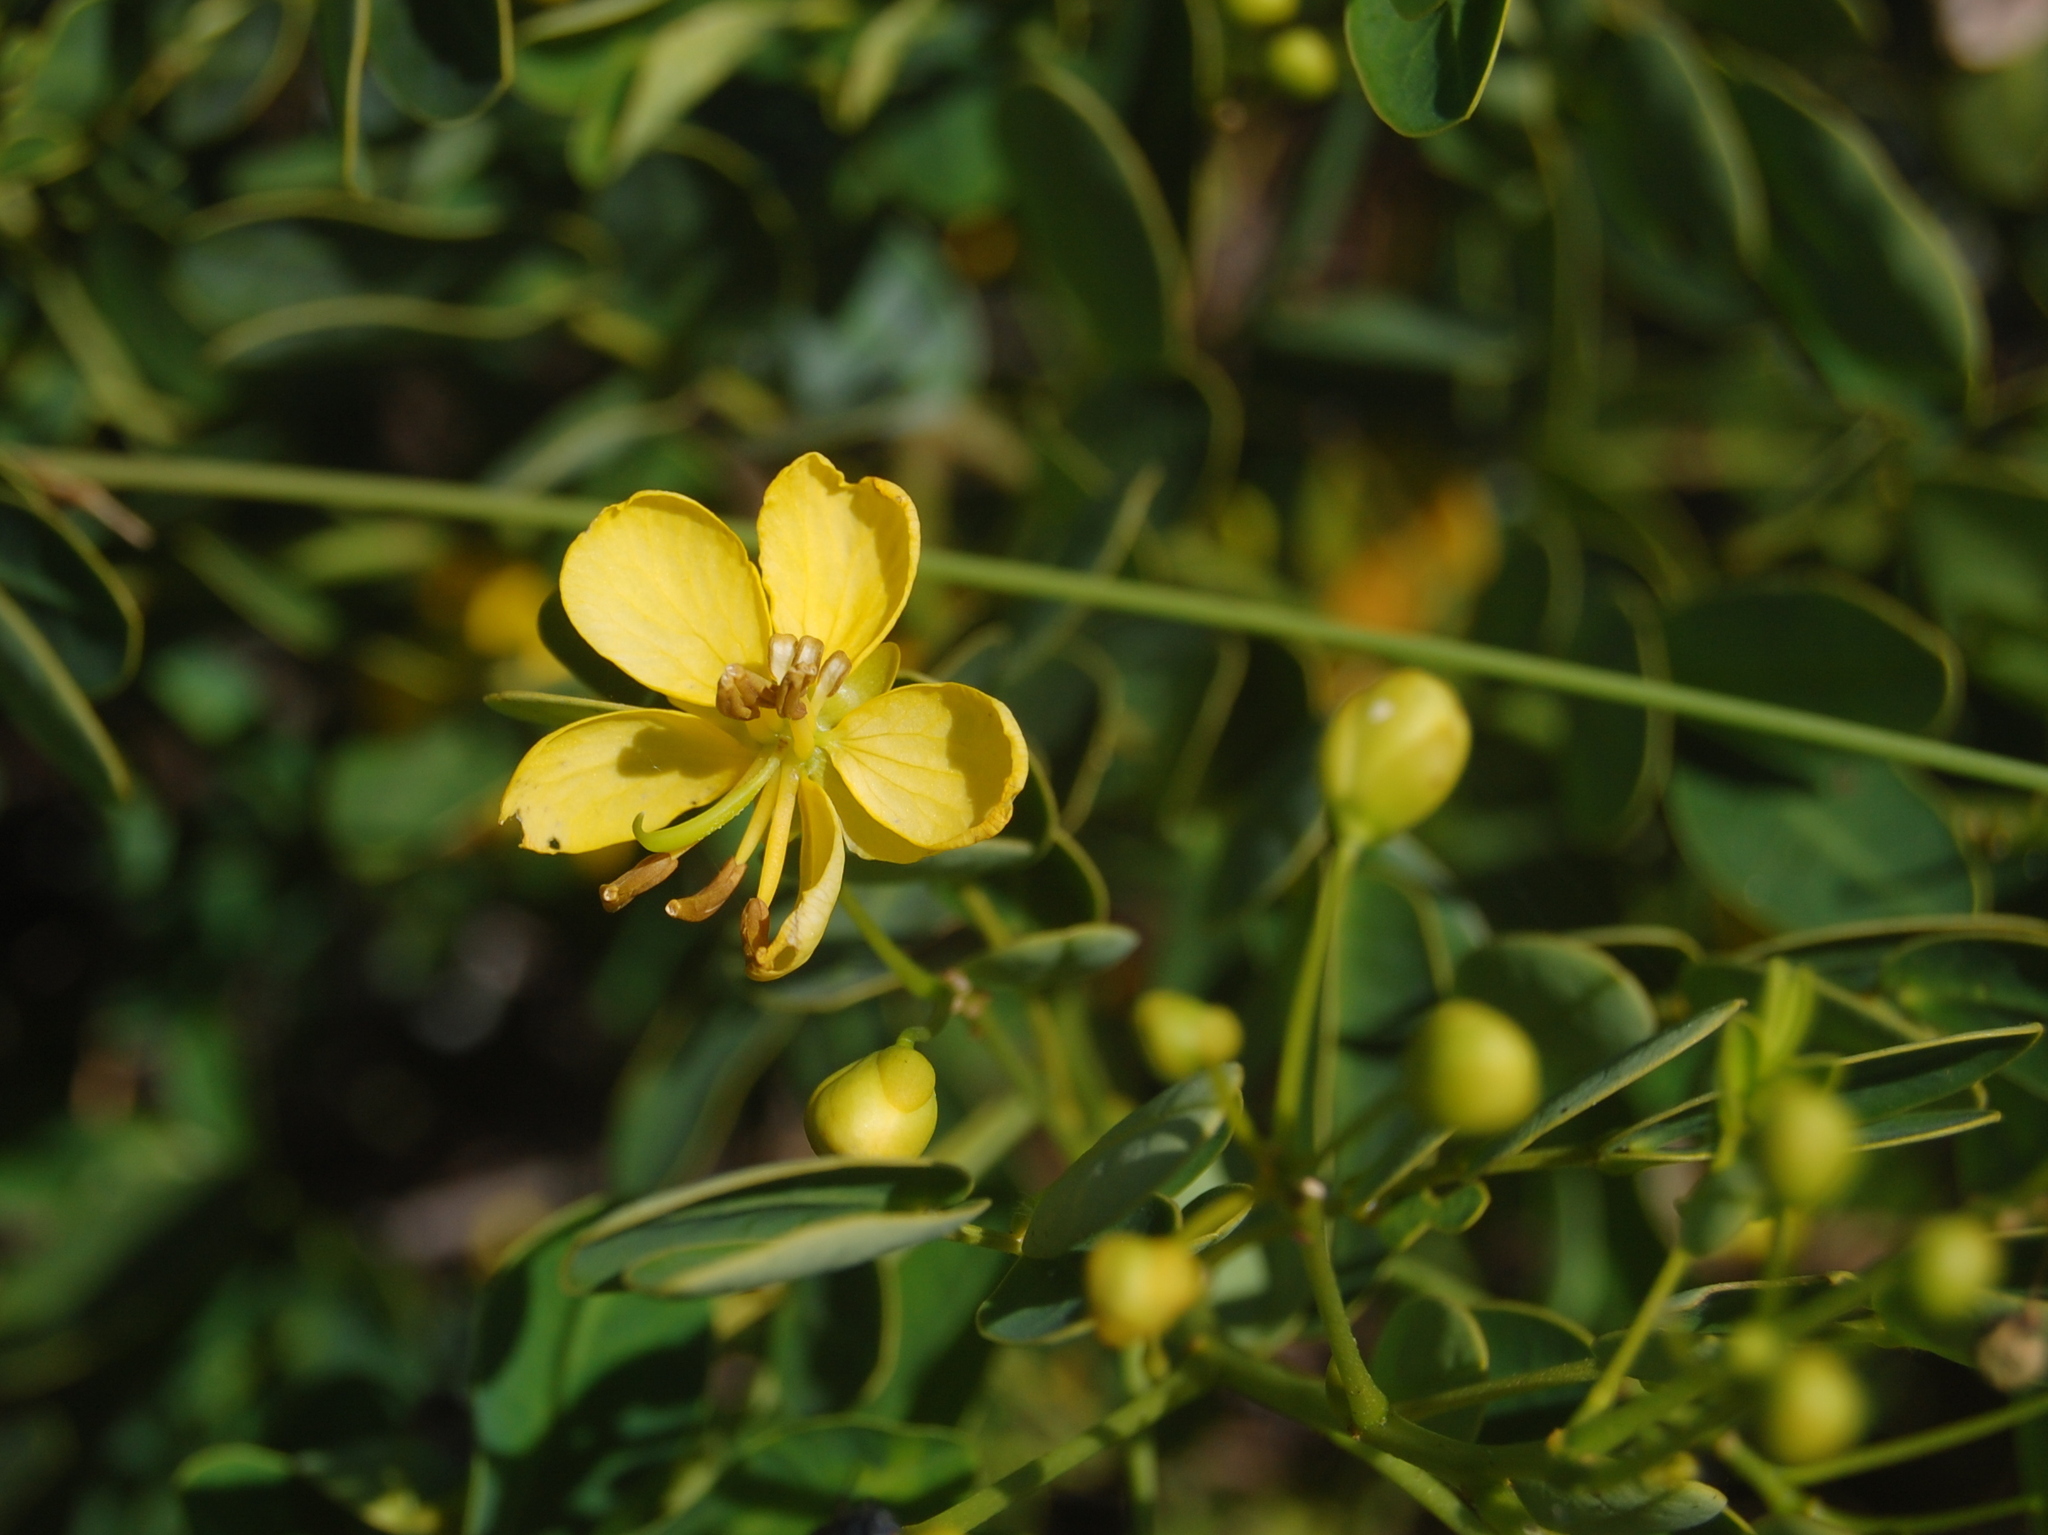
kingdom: Plantae
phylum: Tracheophyta
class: Magnoliopsida
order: Fabales
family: Fabaceae
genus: Senna
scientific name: Senna corymbosa
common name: Argentine senna
